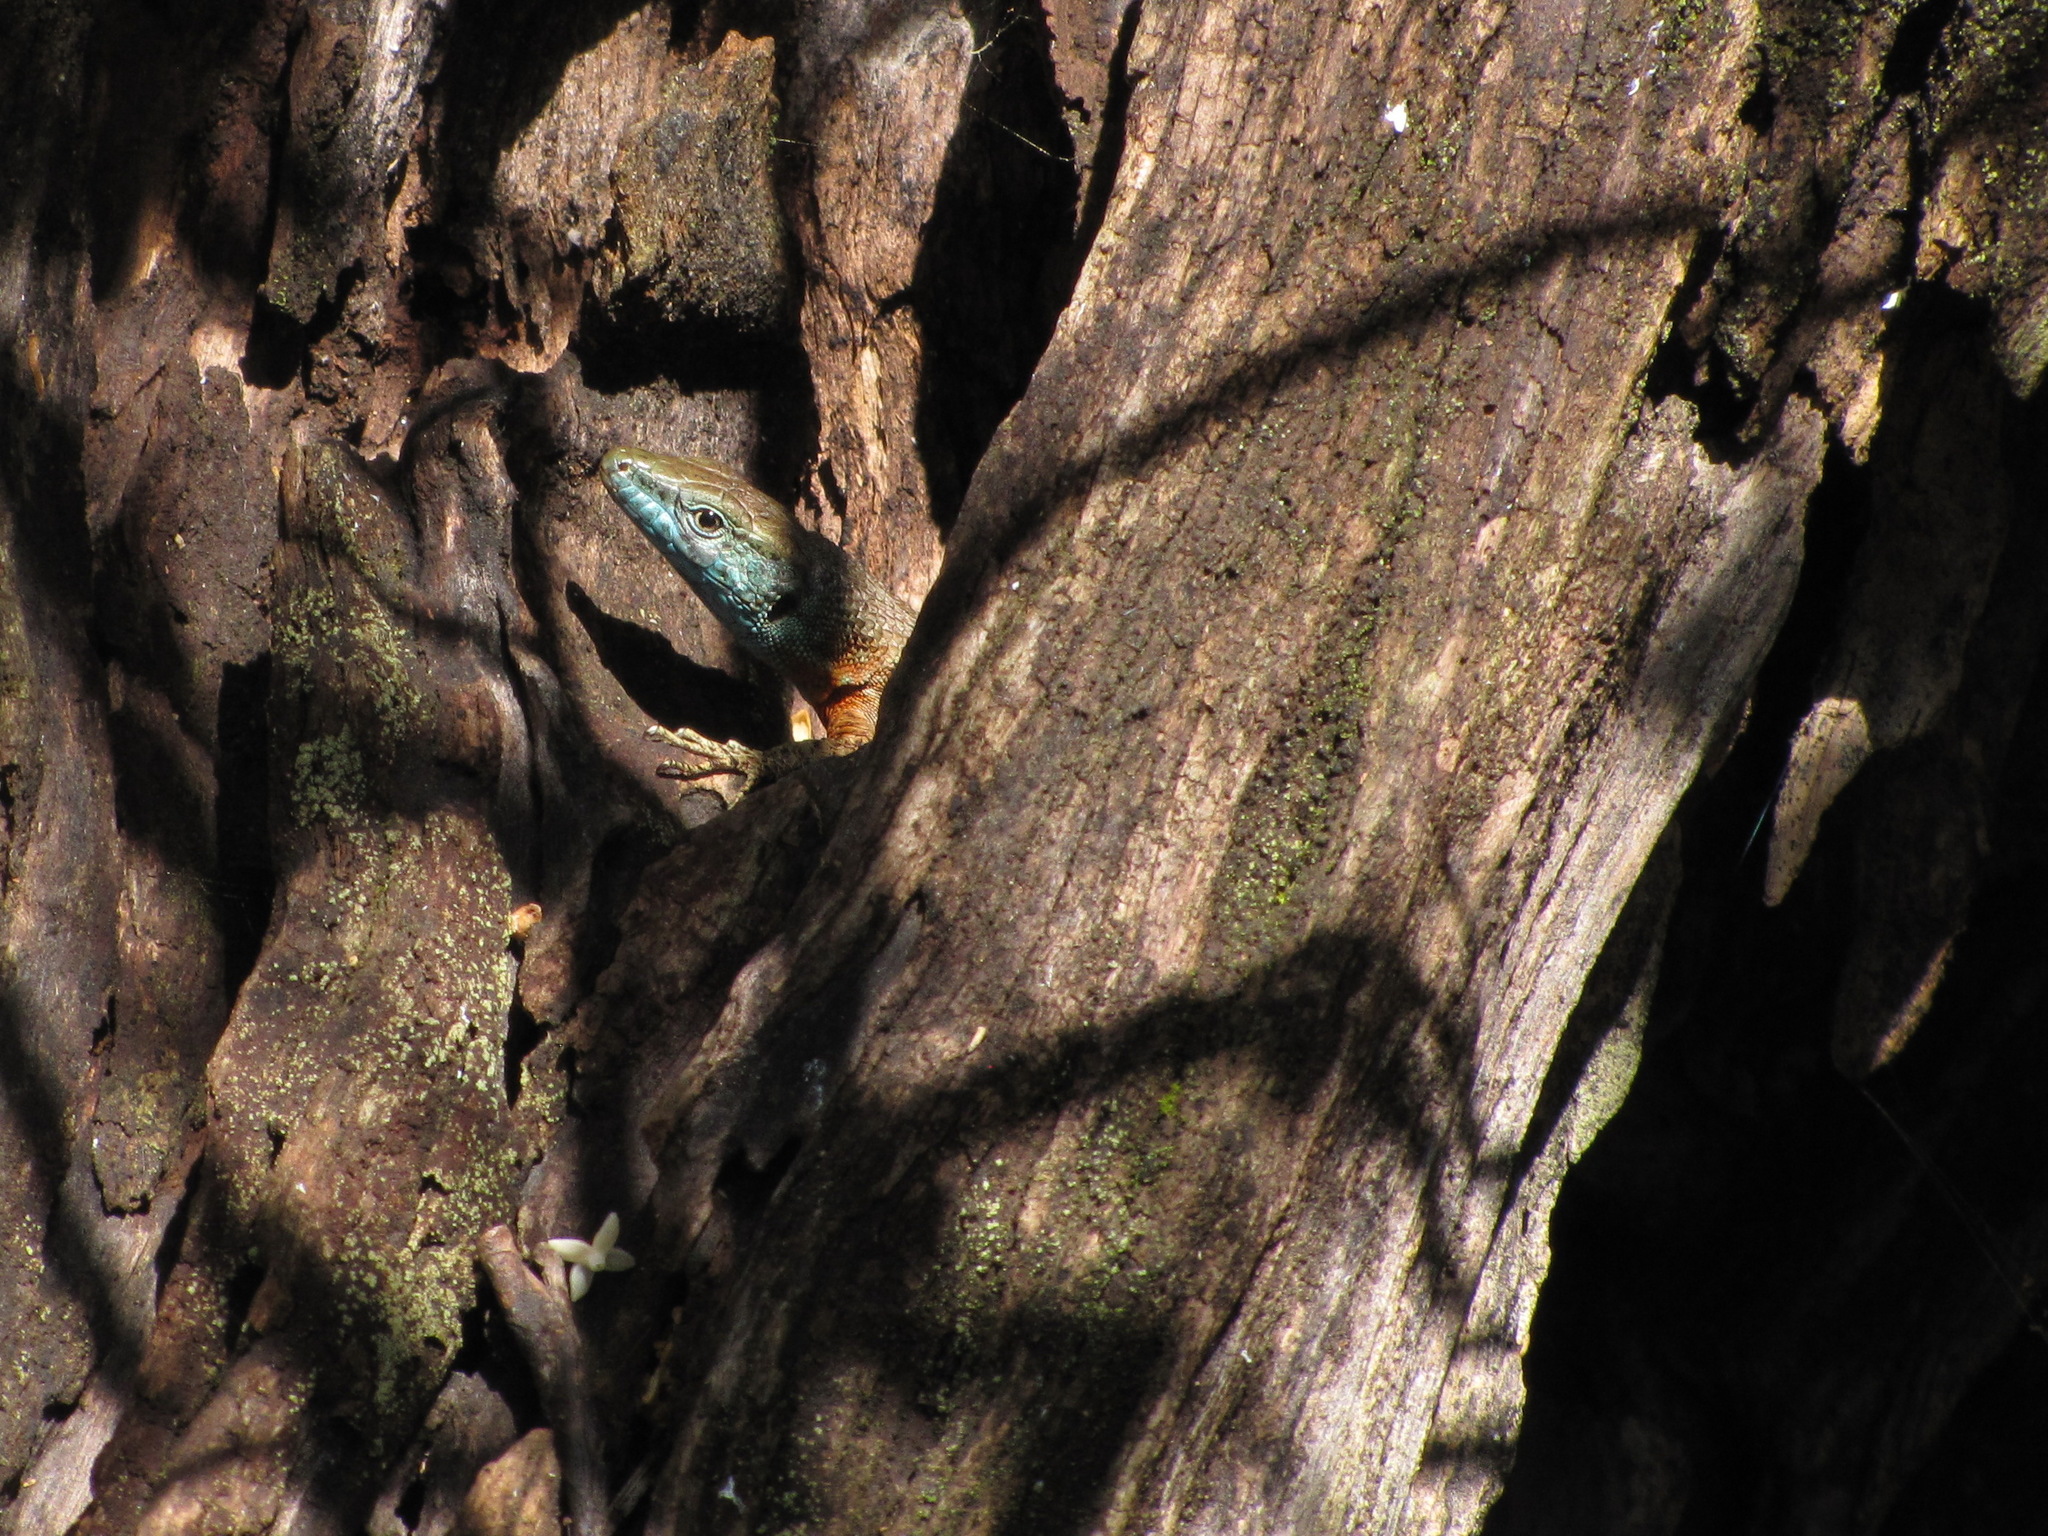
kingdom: Animalia
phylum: Chordata
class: Squamata
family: Lacertidae
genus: Algyroides
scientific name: Algyroides nigropunctatus
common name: Blue-throated keeled lizard
